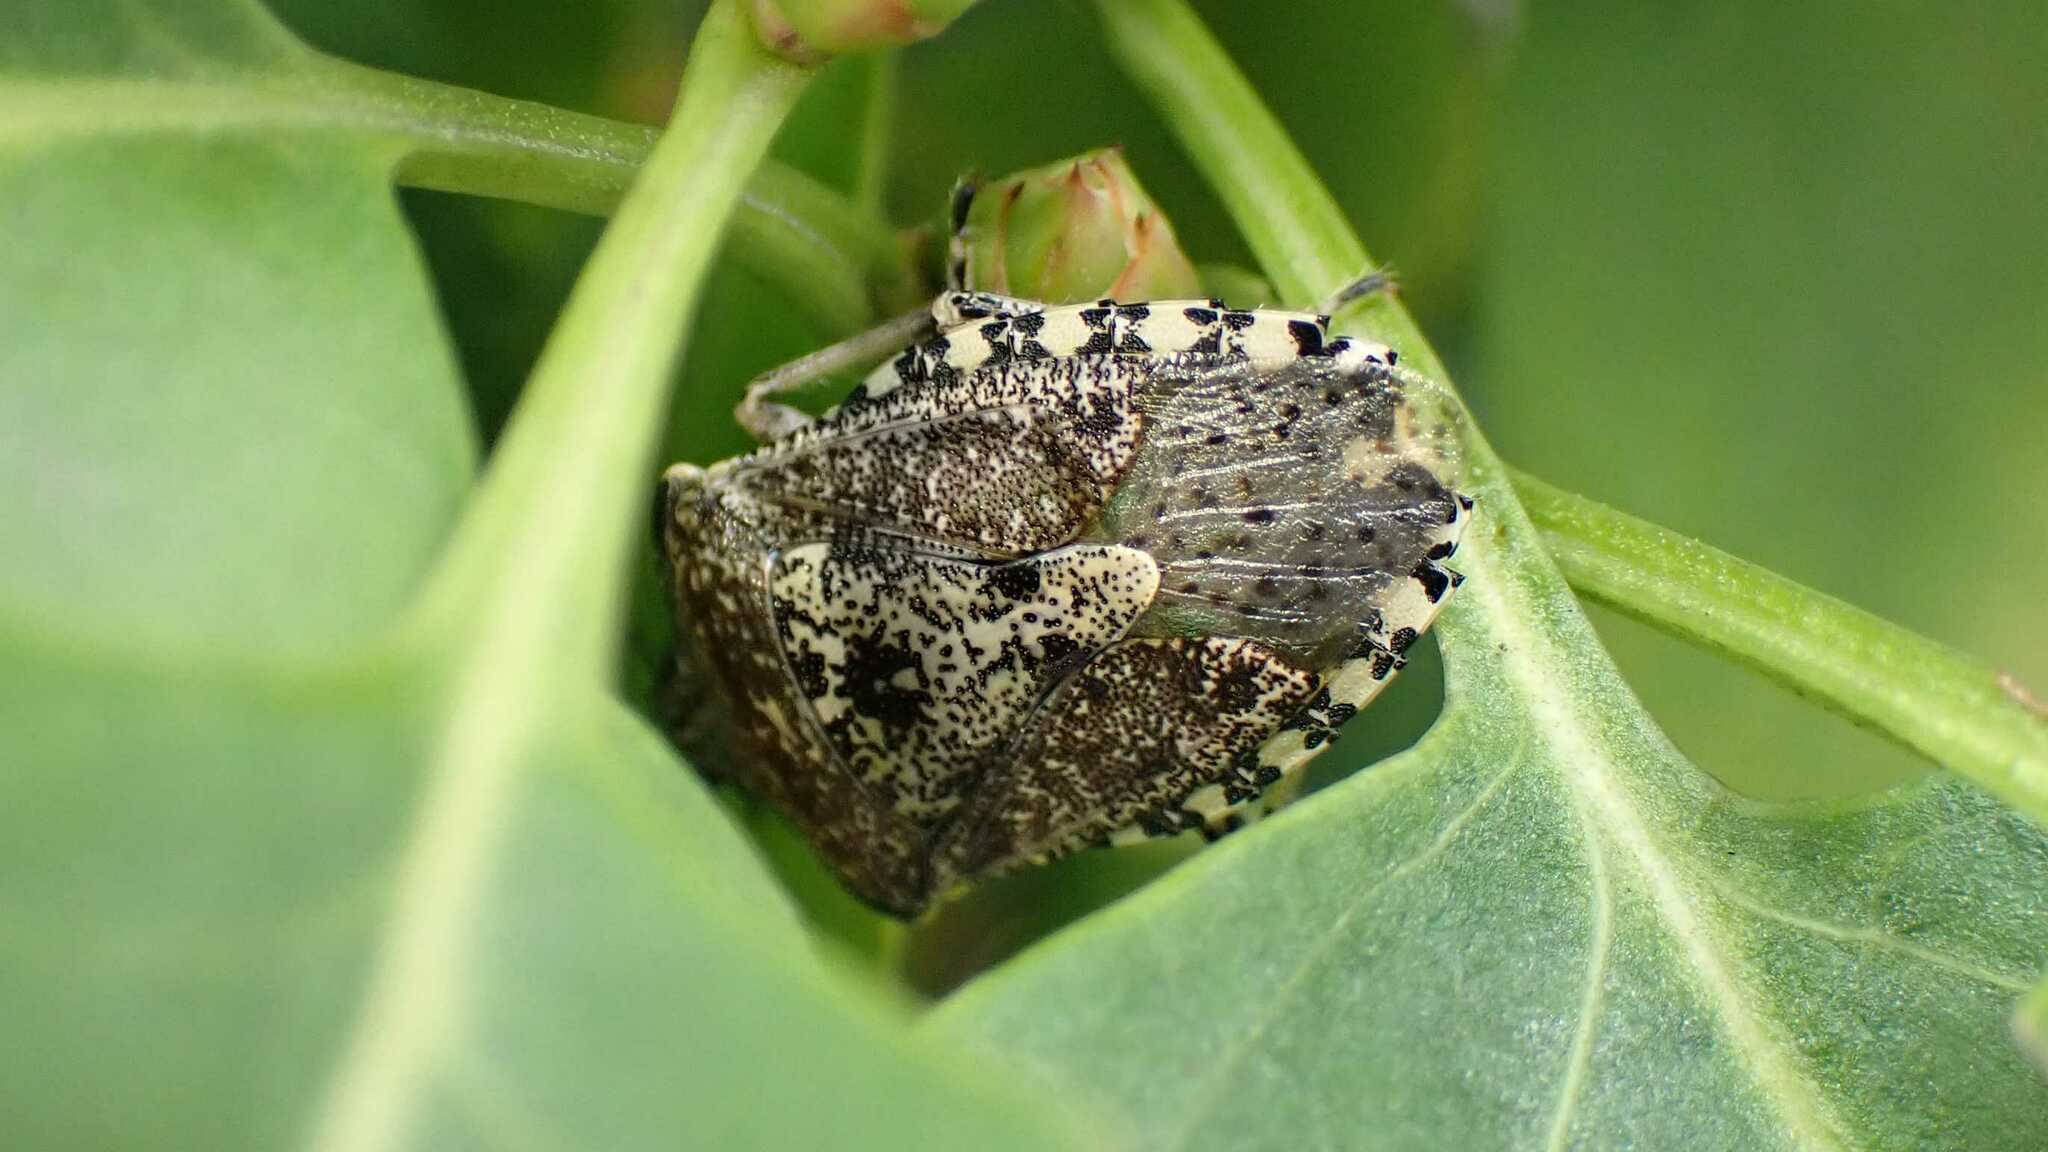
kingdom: Animalia
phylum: Arthropoda
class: Insecta
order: Hemiptera
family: Pentatomidae
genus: Rhaphigaster
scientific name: Rhaphigaster nebulosa
